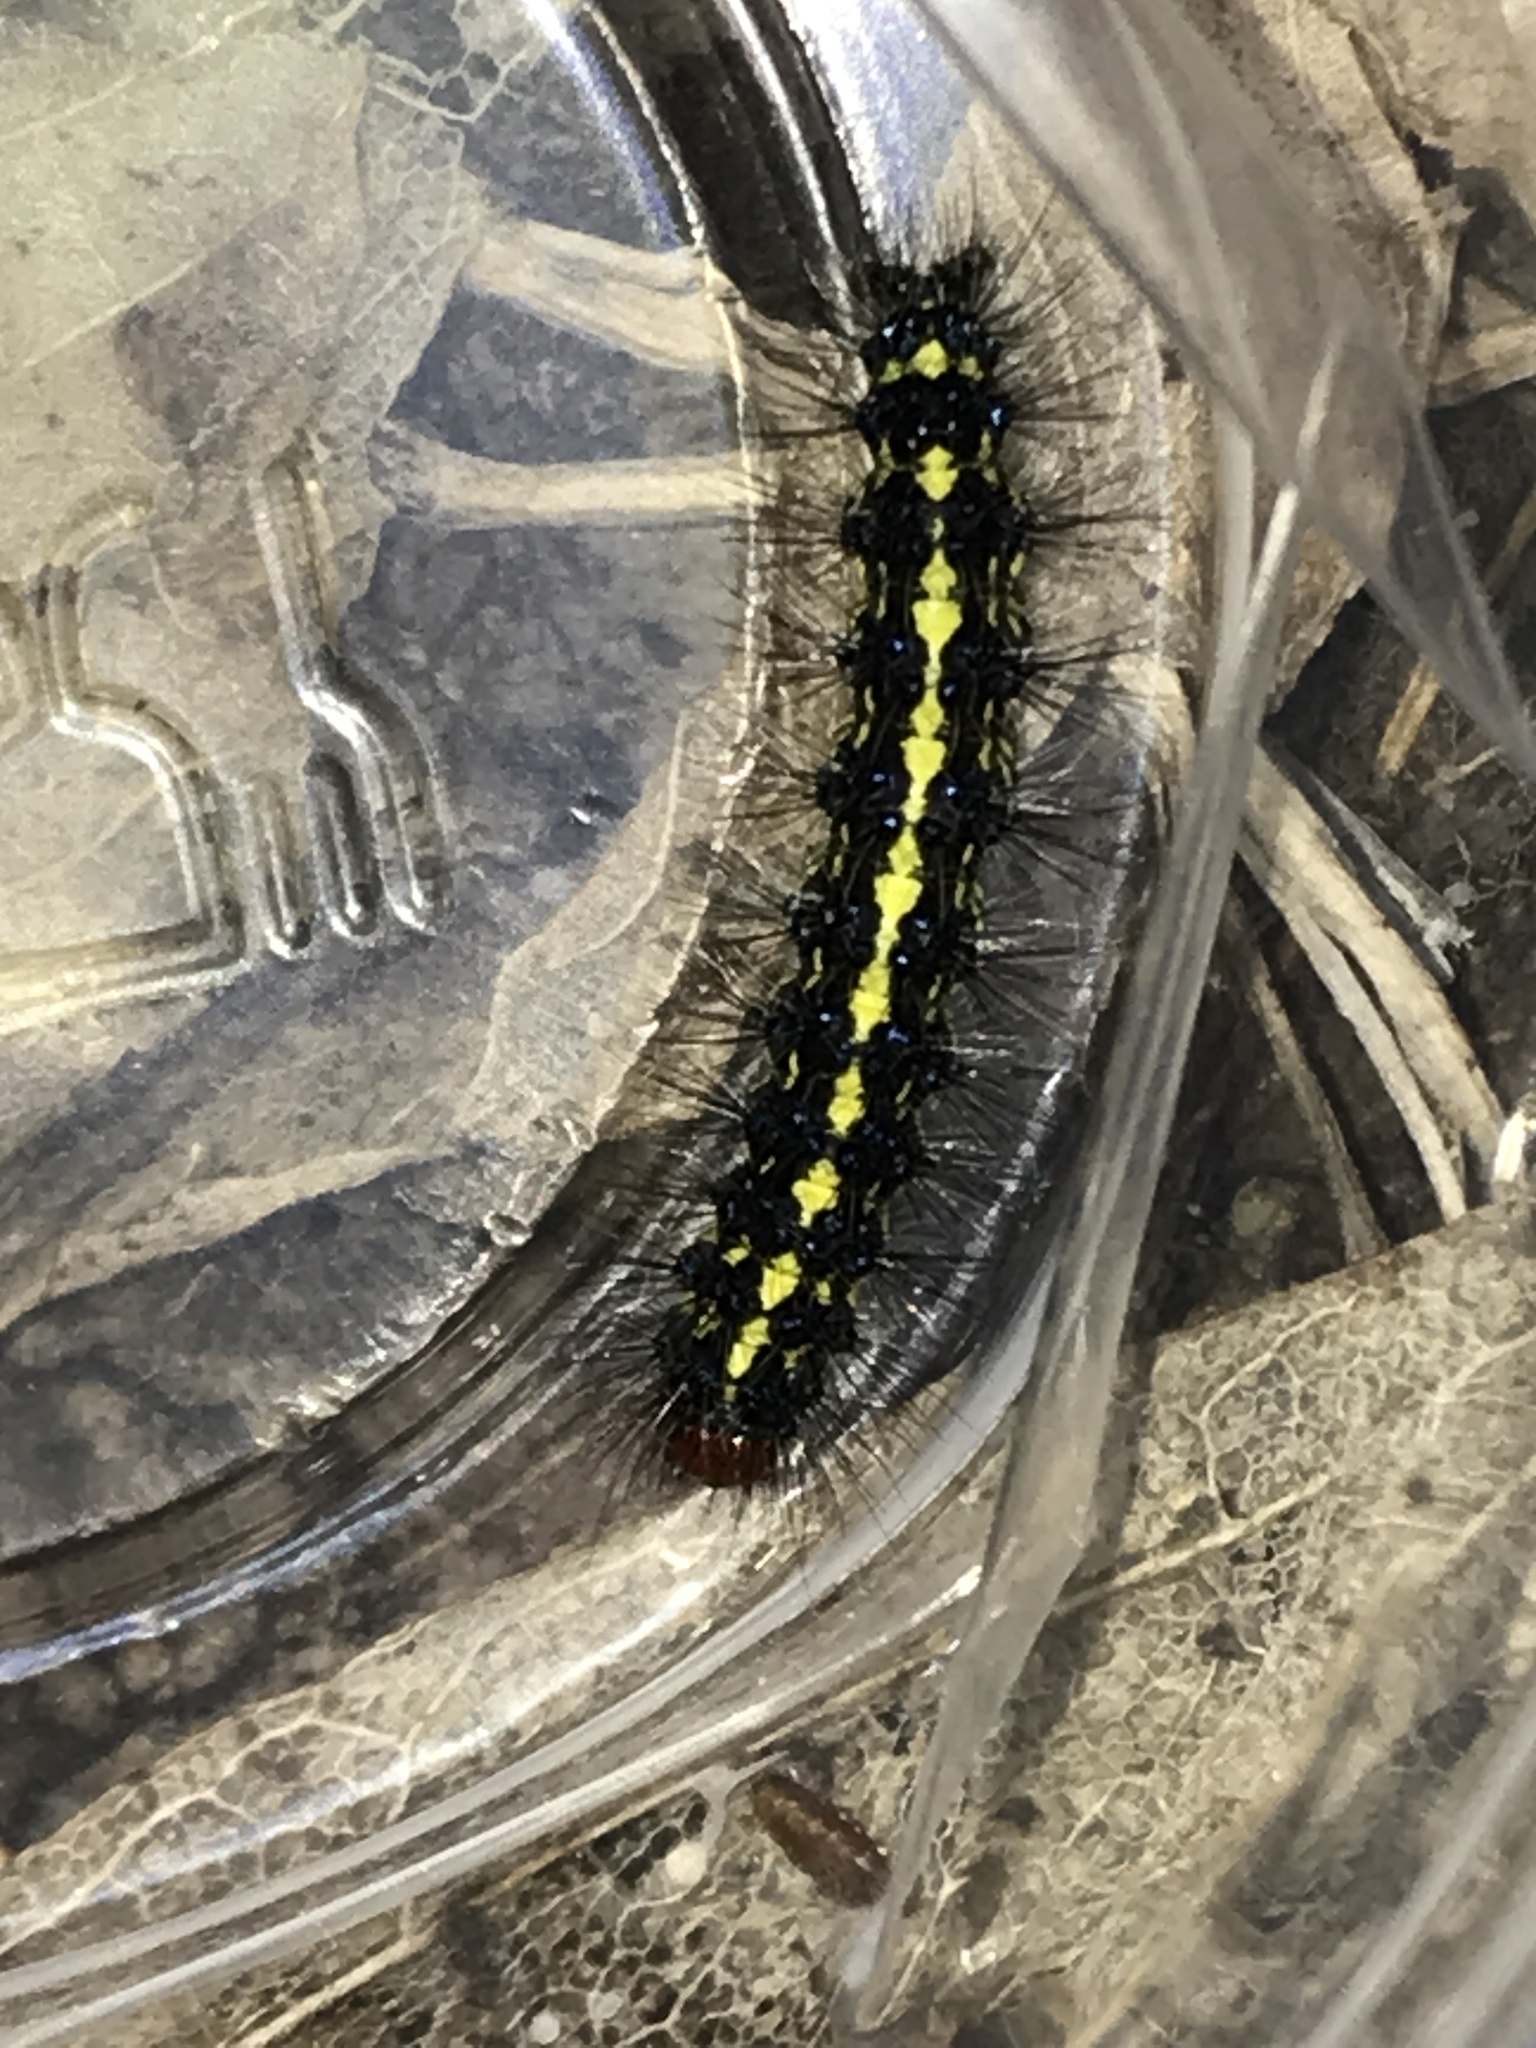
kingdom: Animalia
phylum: Arthropoda
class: Insecta
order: Lepidoptera
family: Erebidae
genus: Gnophaela
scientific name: Gnophaela vermiculata
